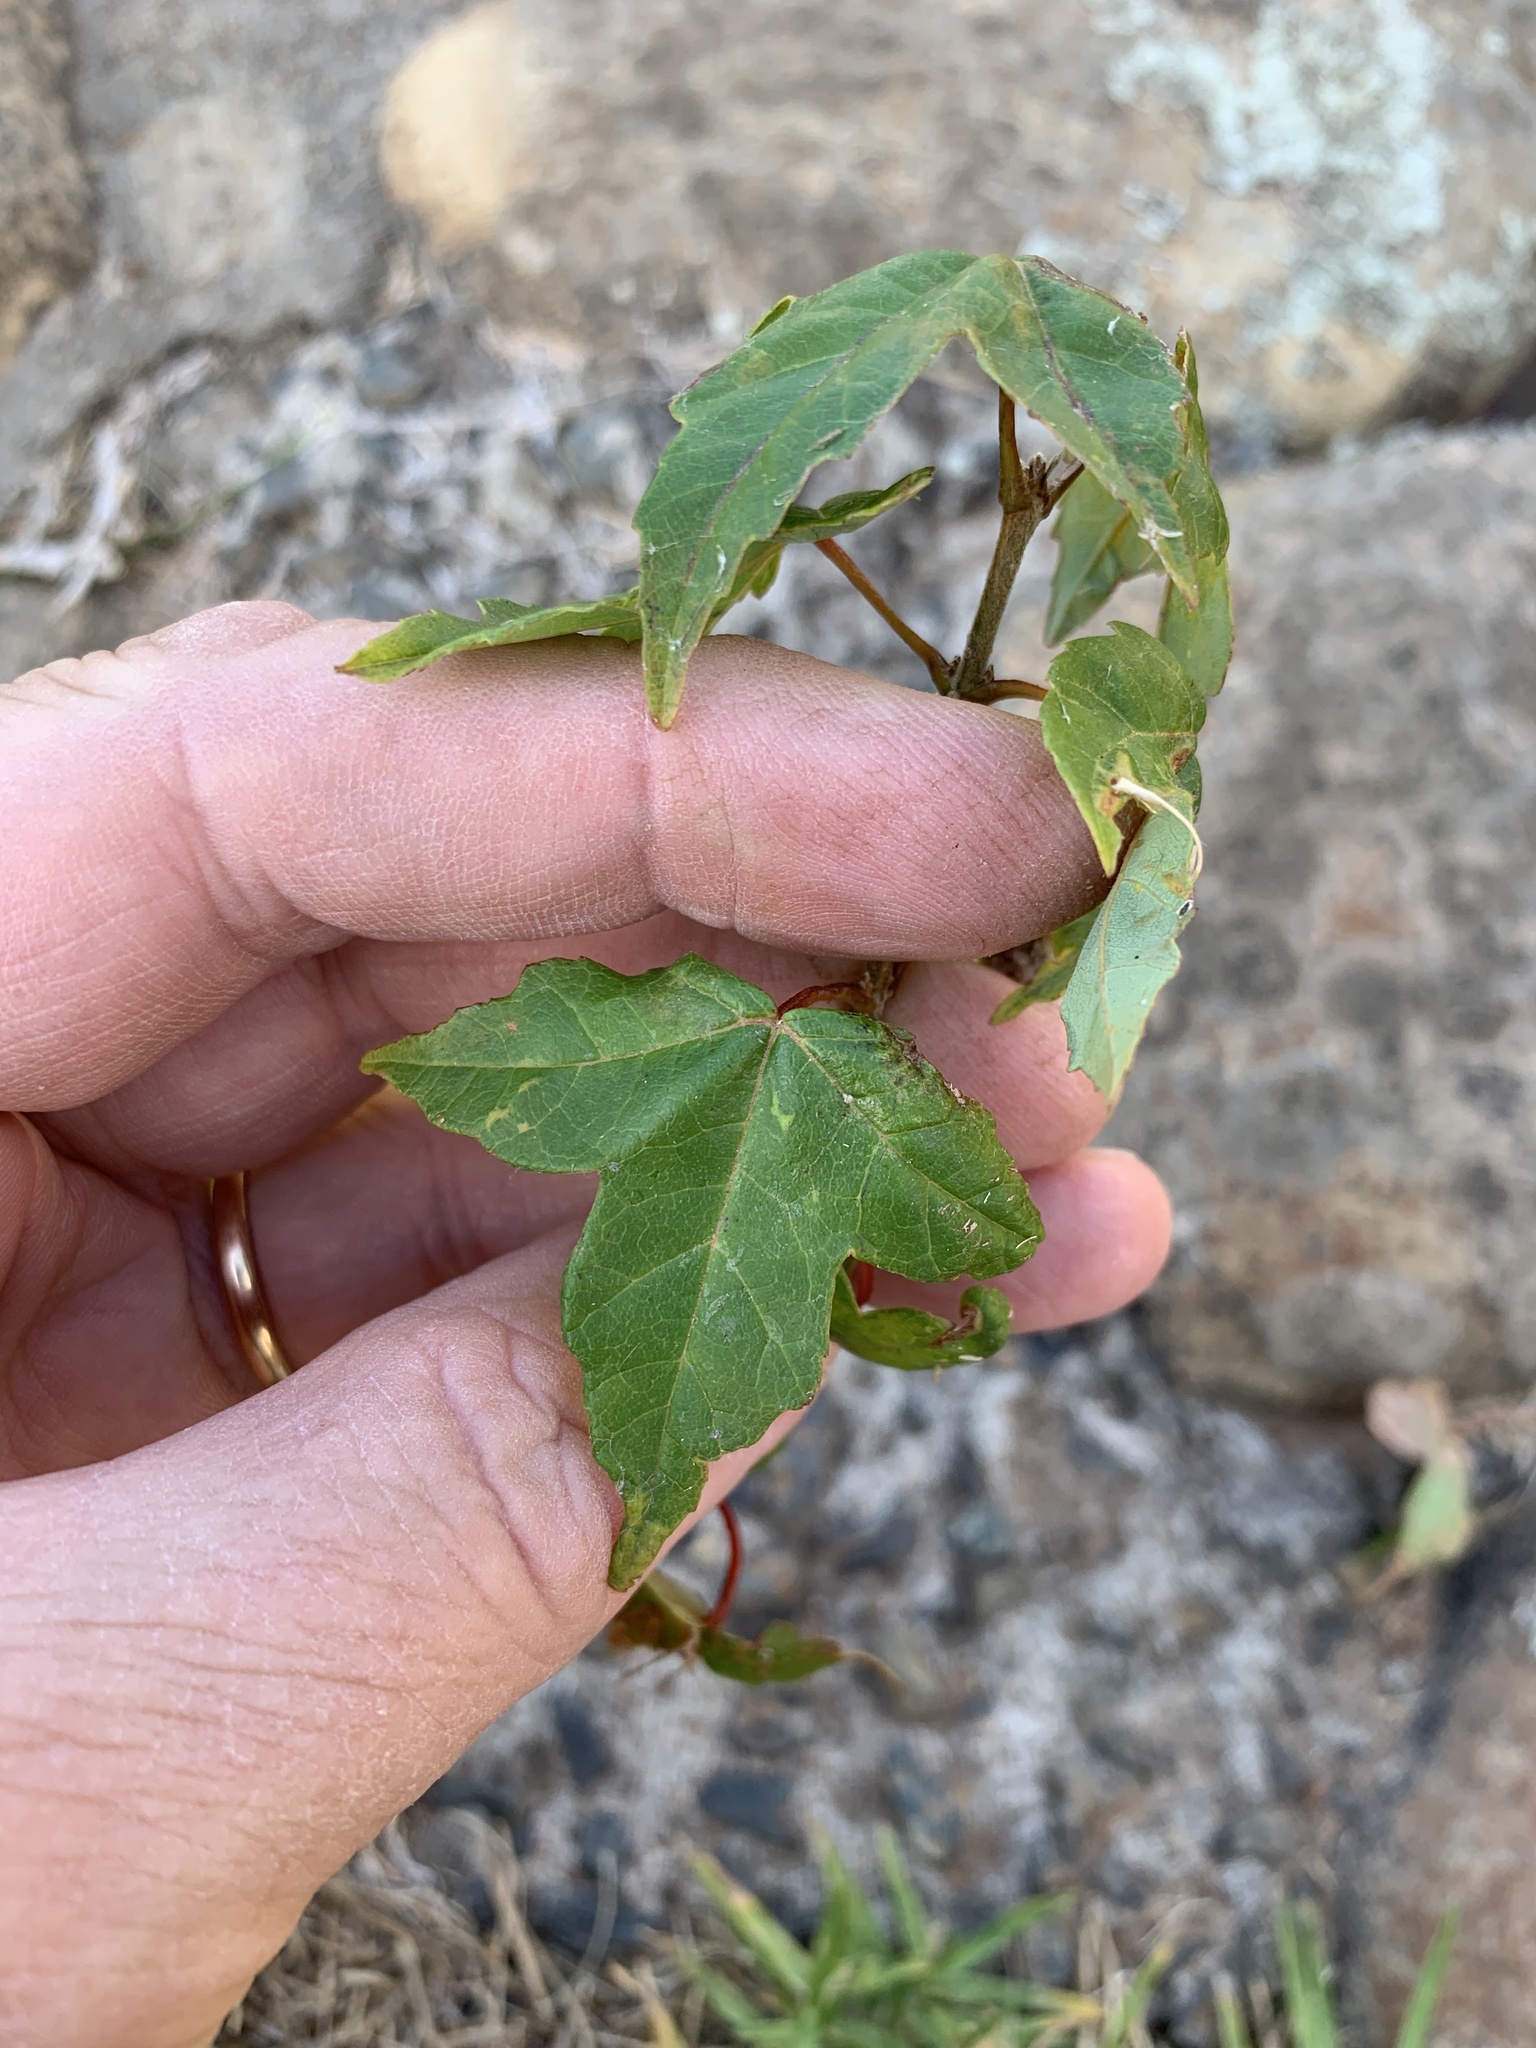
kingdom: Plantae
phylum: Tracheophyta
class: Magnoliopsida
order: Sapindales
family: Sapindaceae
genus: Acer
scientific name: Acer buergerianum
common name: Trident maple
